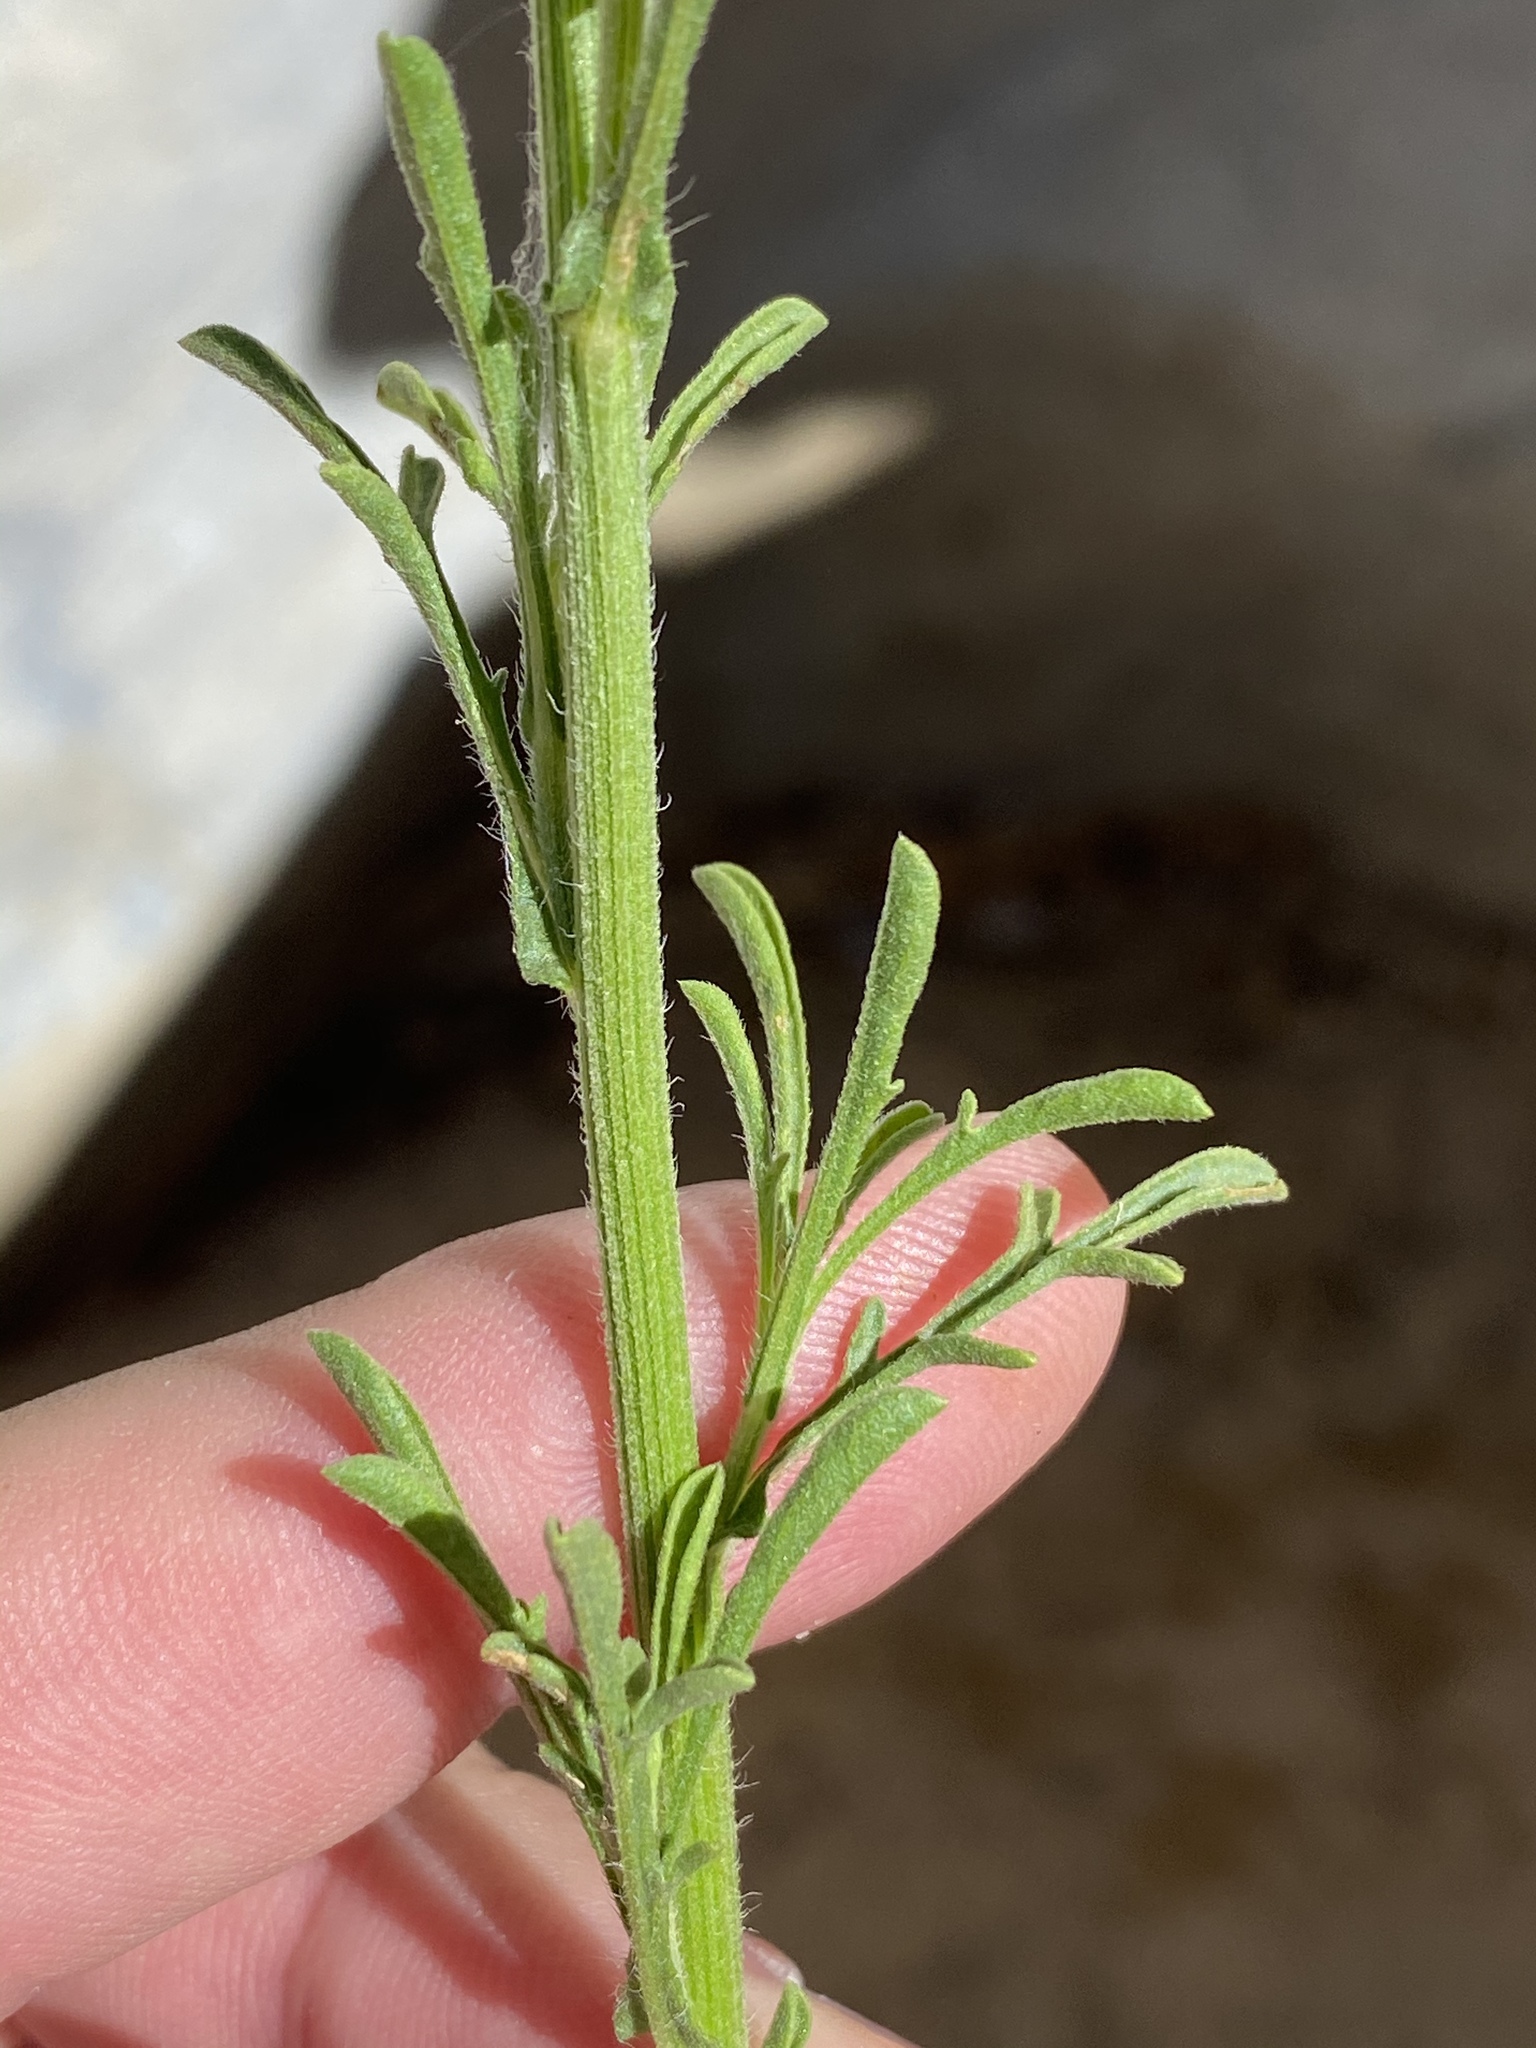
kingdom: Plantae
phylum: Tracheophyta
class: Magnoliopsida
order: Asterales
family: Asteraceae
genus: Nidorella
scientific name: Nidorella resedifolia
